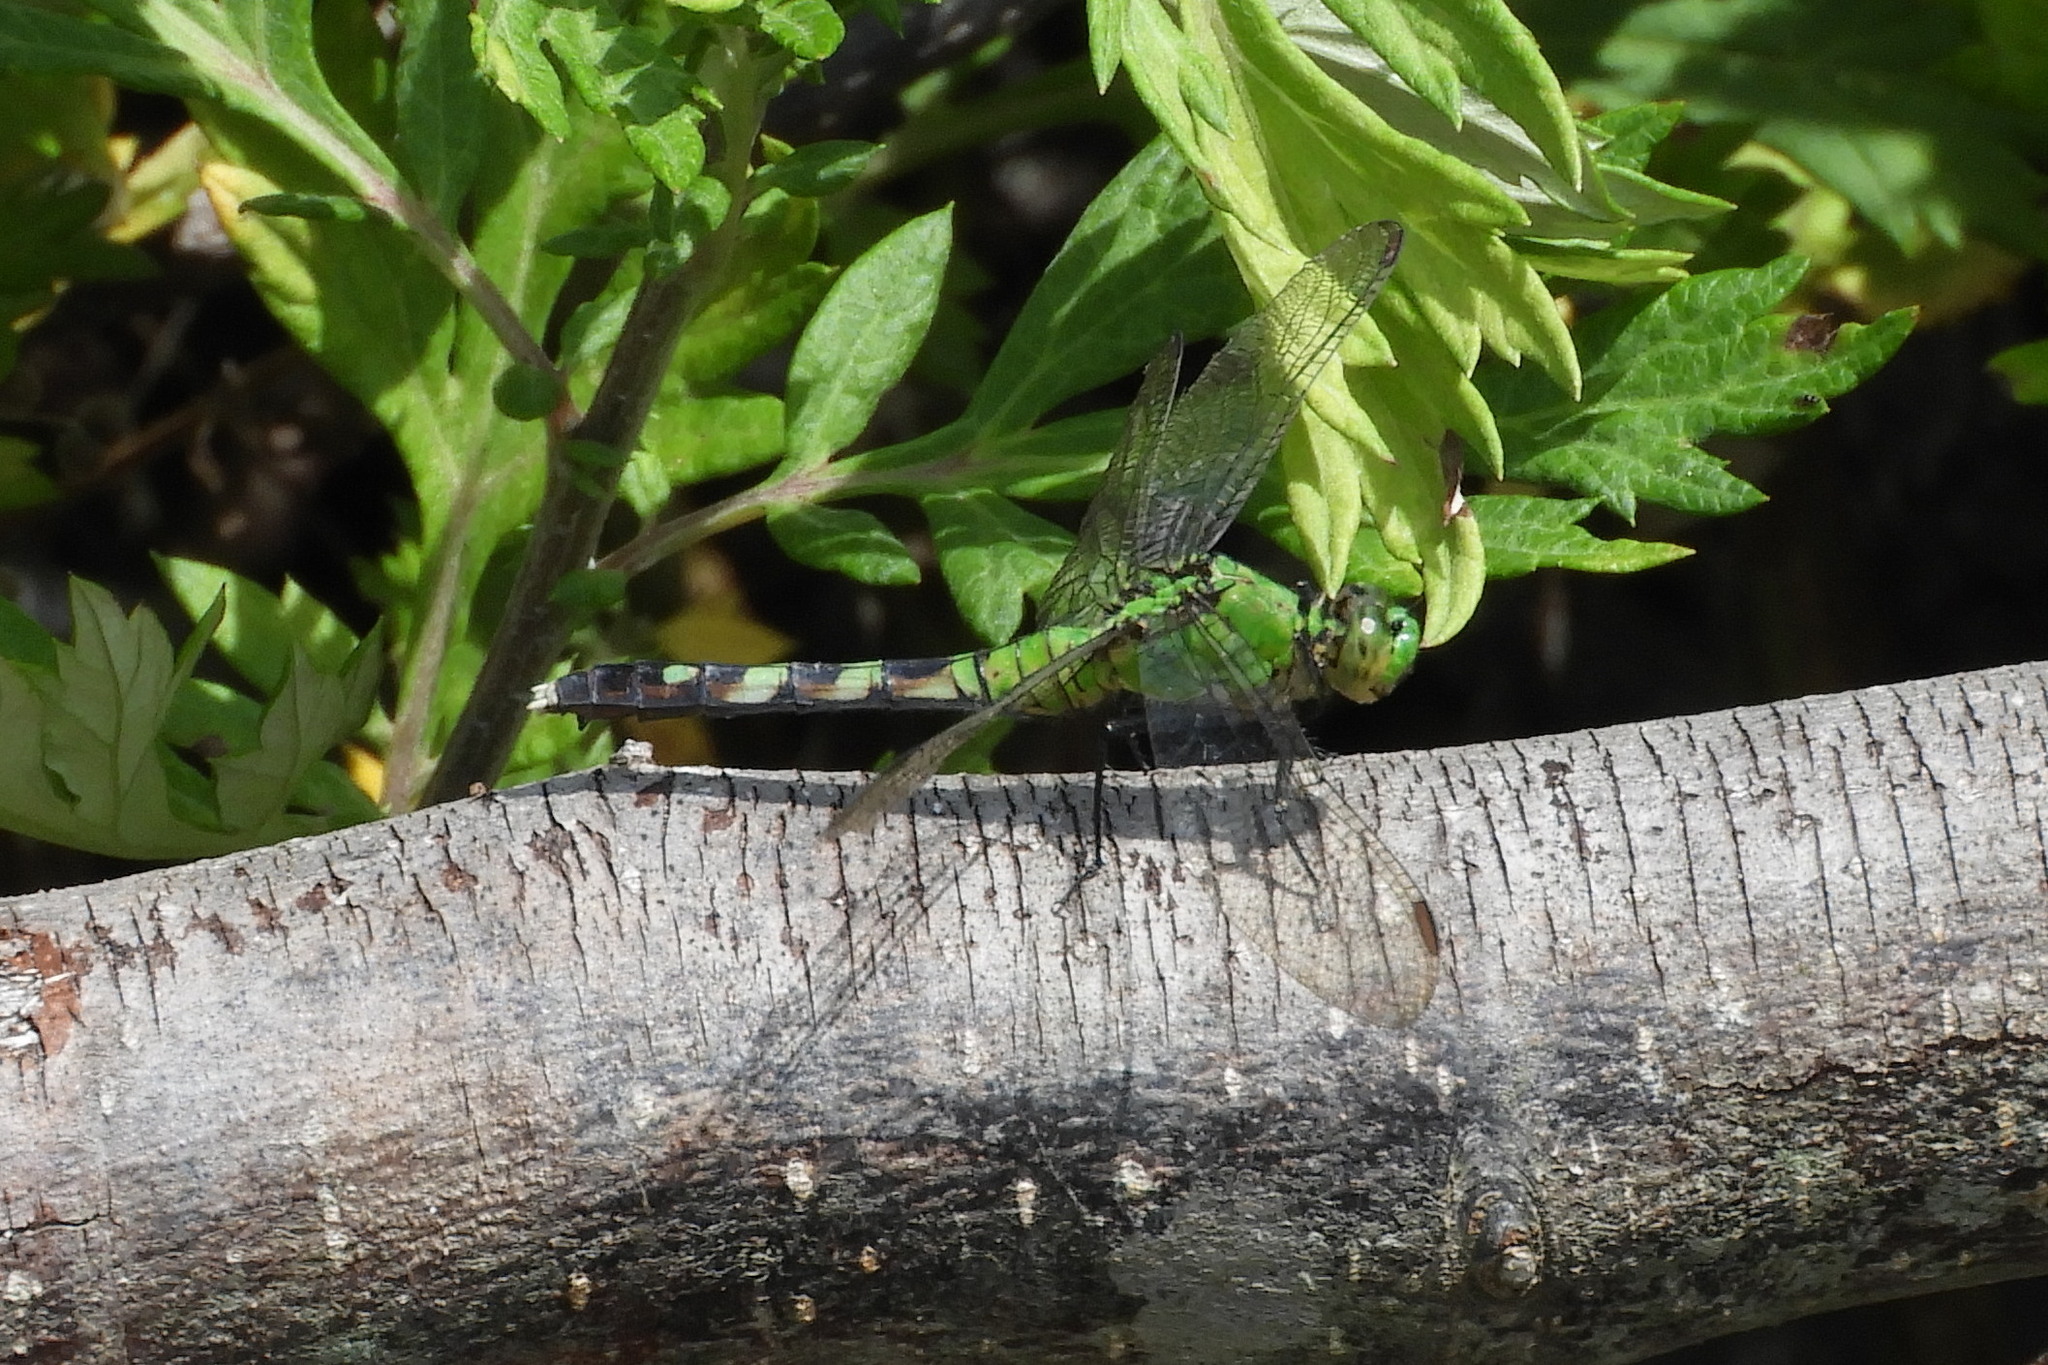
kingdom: Animalia
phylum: Arthropoda
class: Insecta
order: Odonata
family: Libellulidae
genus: Erythemis
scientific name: Erythemis simplicicollis
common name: Eastern pondhawk
